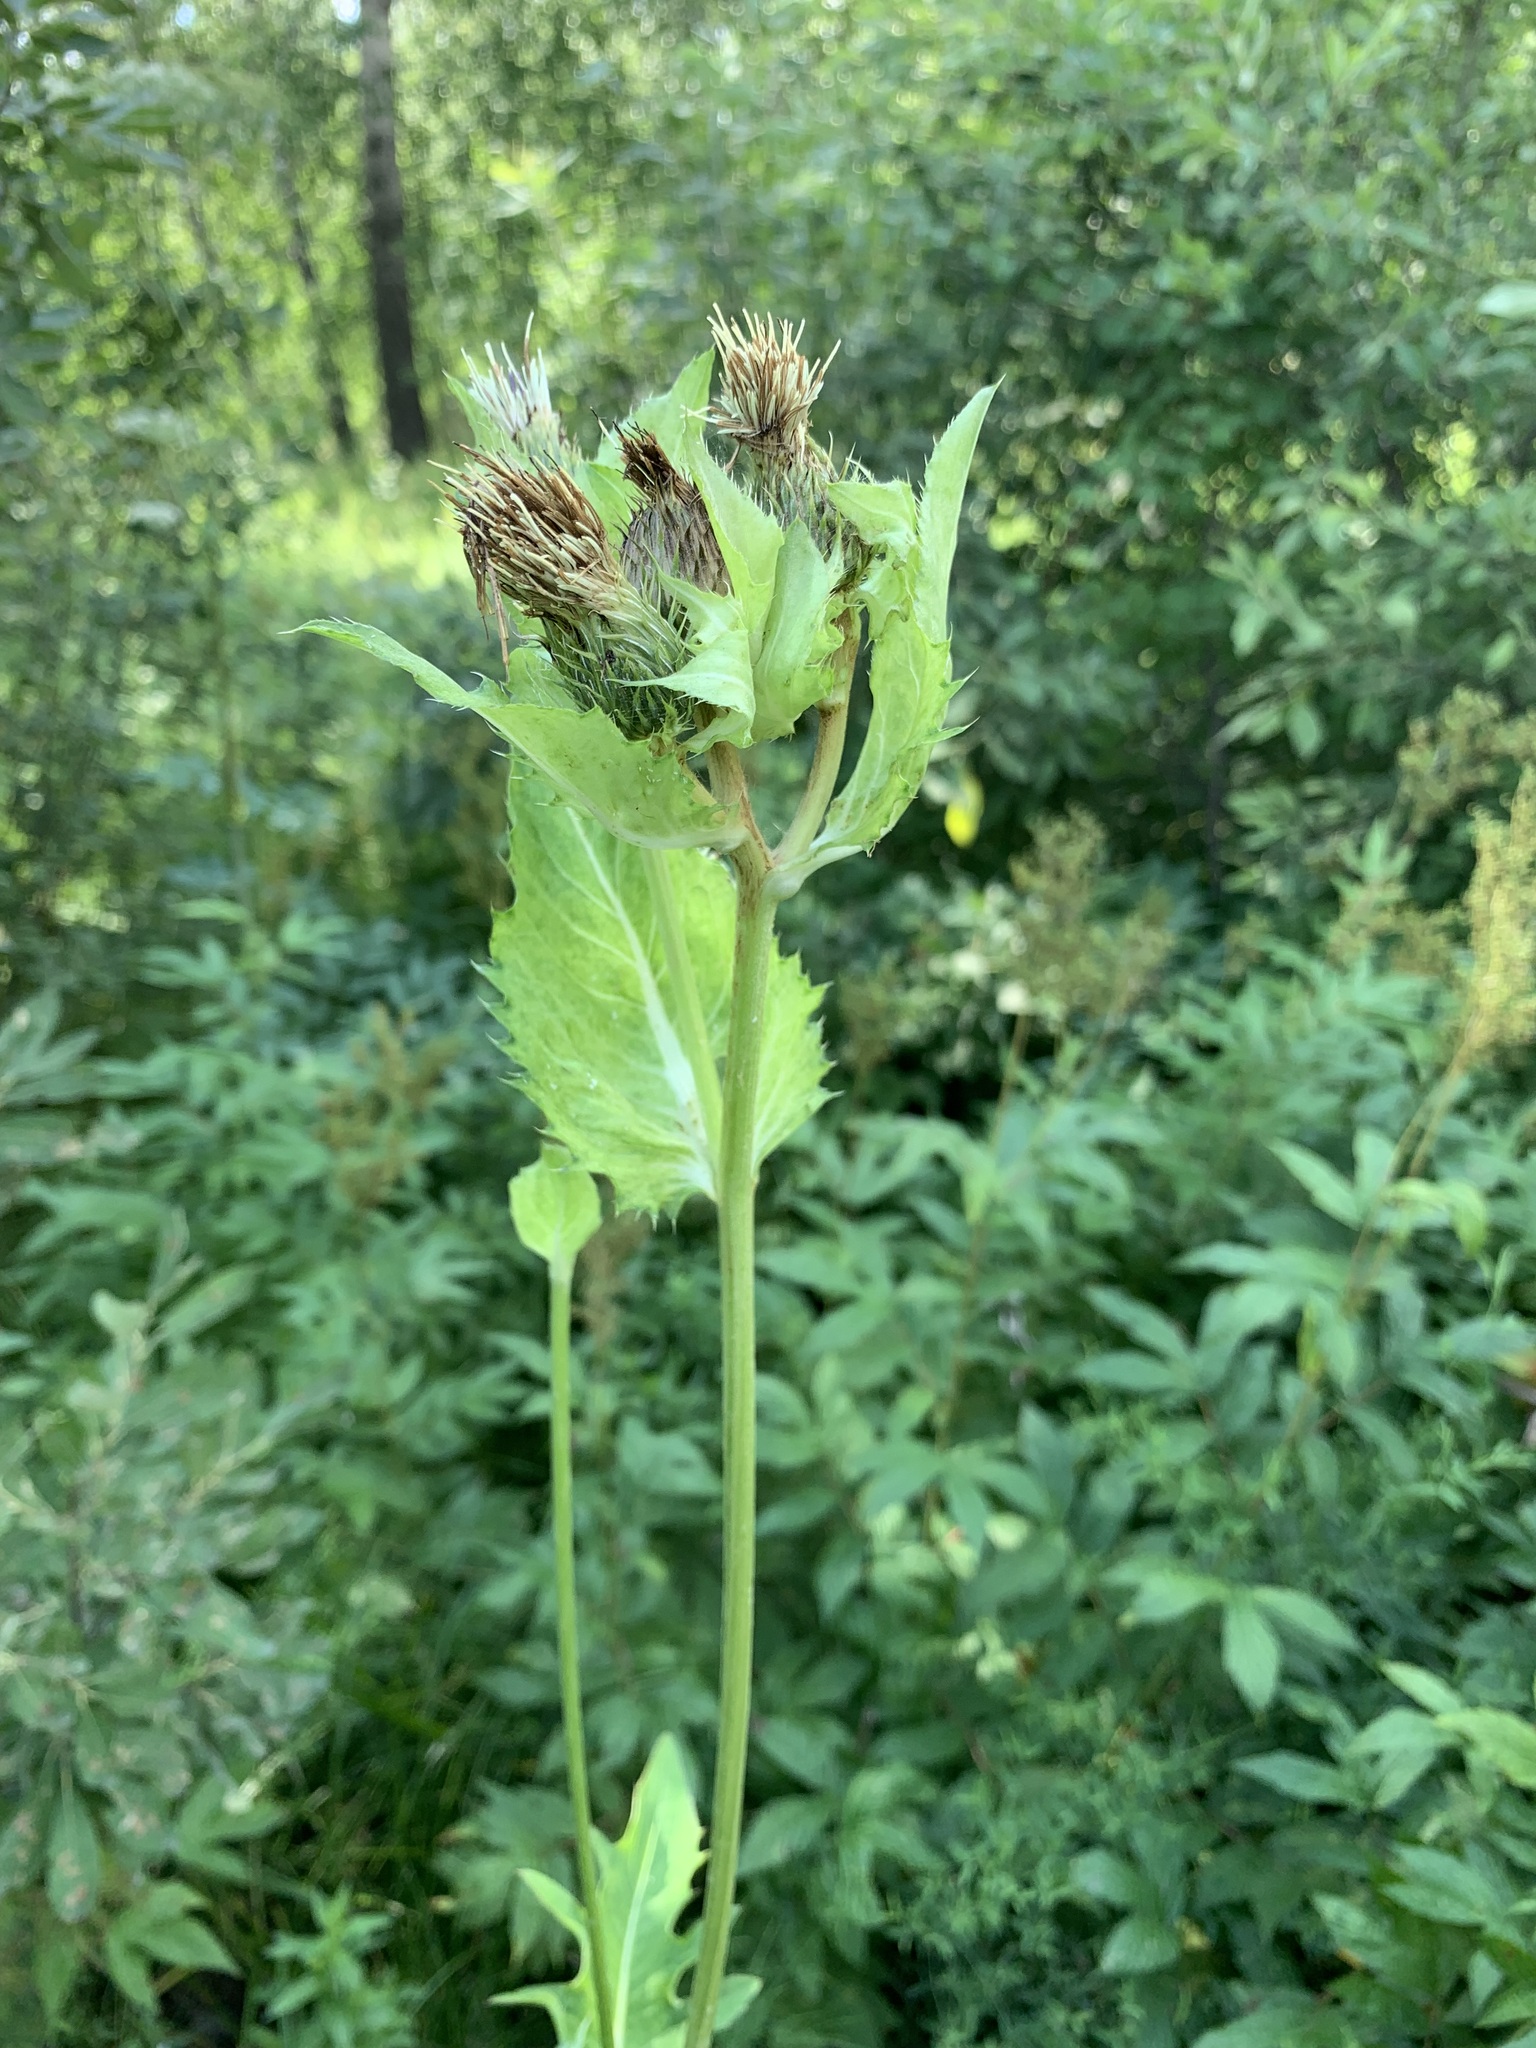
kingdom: Plantae
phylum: Tracheophyta
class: Magnoliopsida
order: Asterales
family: Asteraceae
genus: Cirsium
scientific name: Cirsium oleraceum
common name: Cabbage thistle
